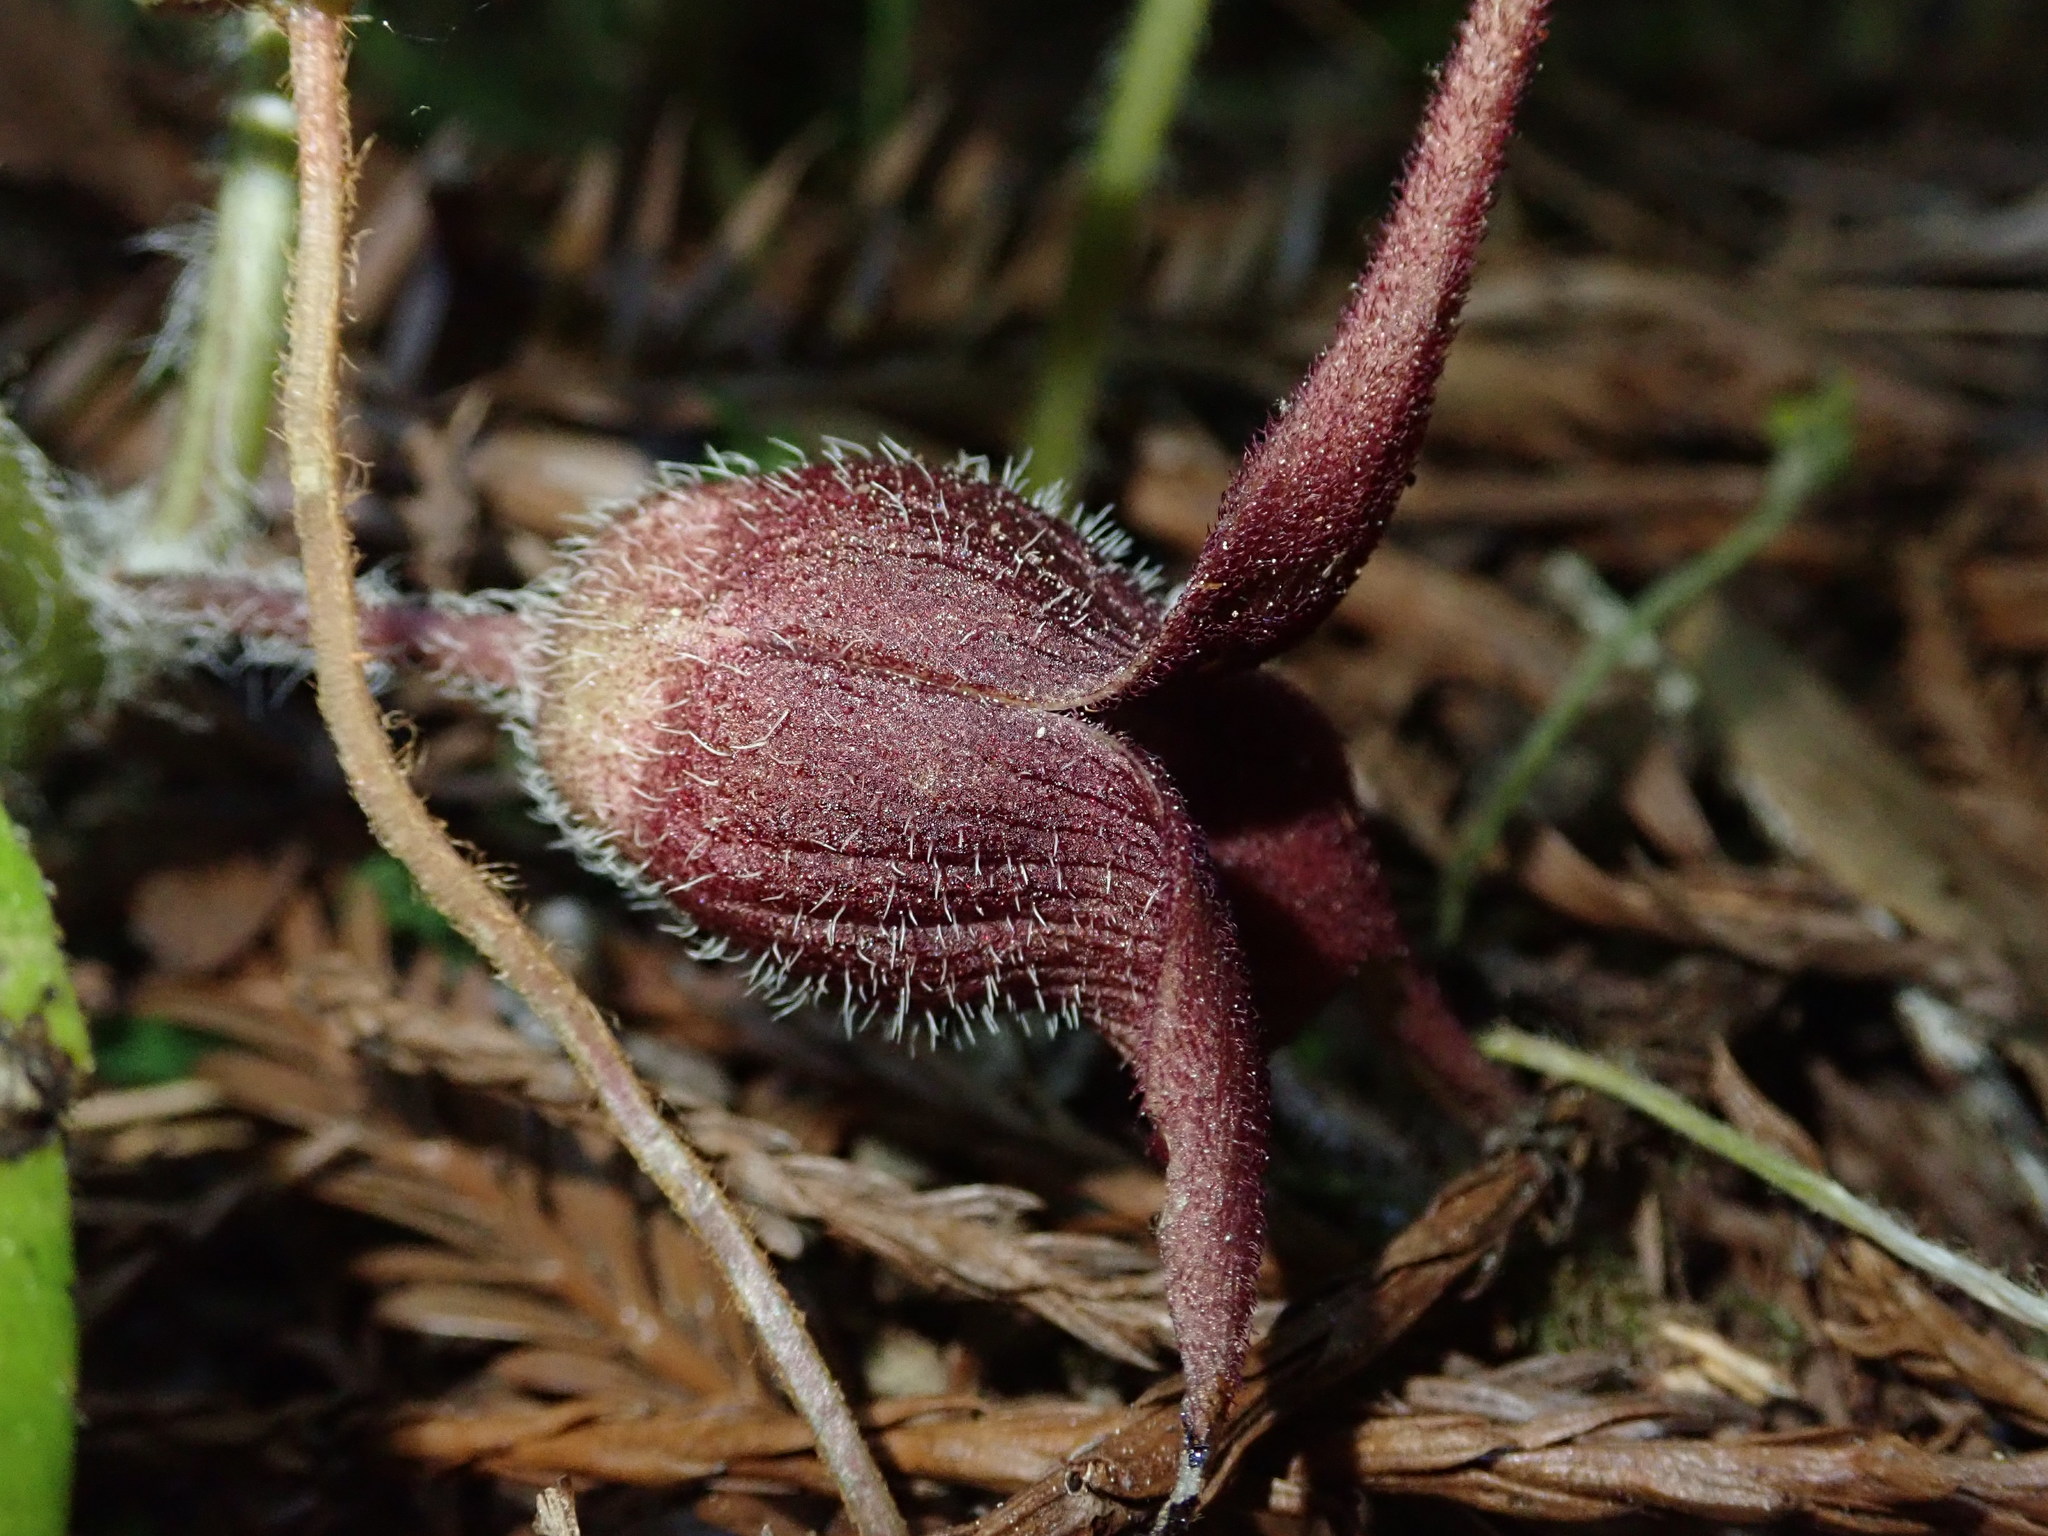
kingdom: Plantae
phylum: Tracheophyta
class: Magnoliopsida
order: Piperales
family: Aristolochiaceae
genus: Asarum
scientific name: Asarum caudatum
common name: Wild ginger
